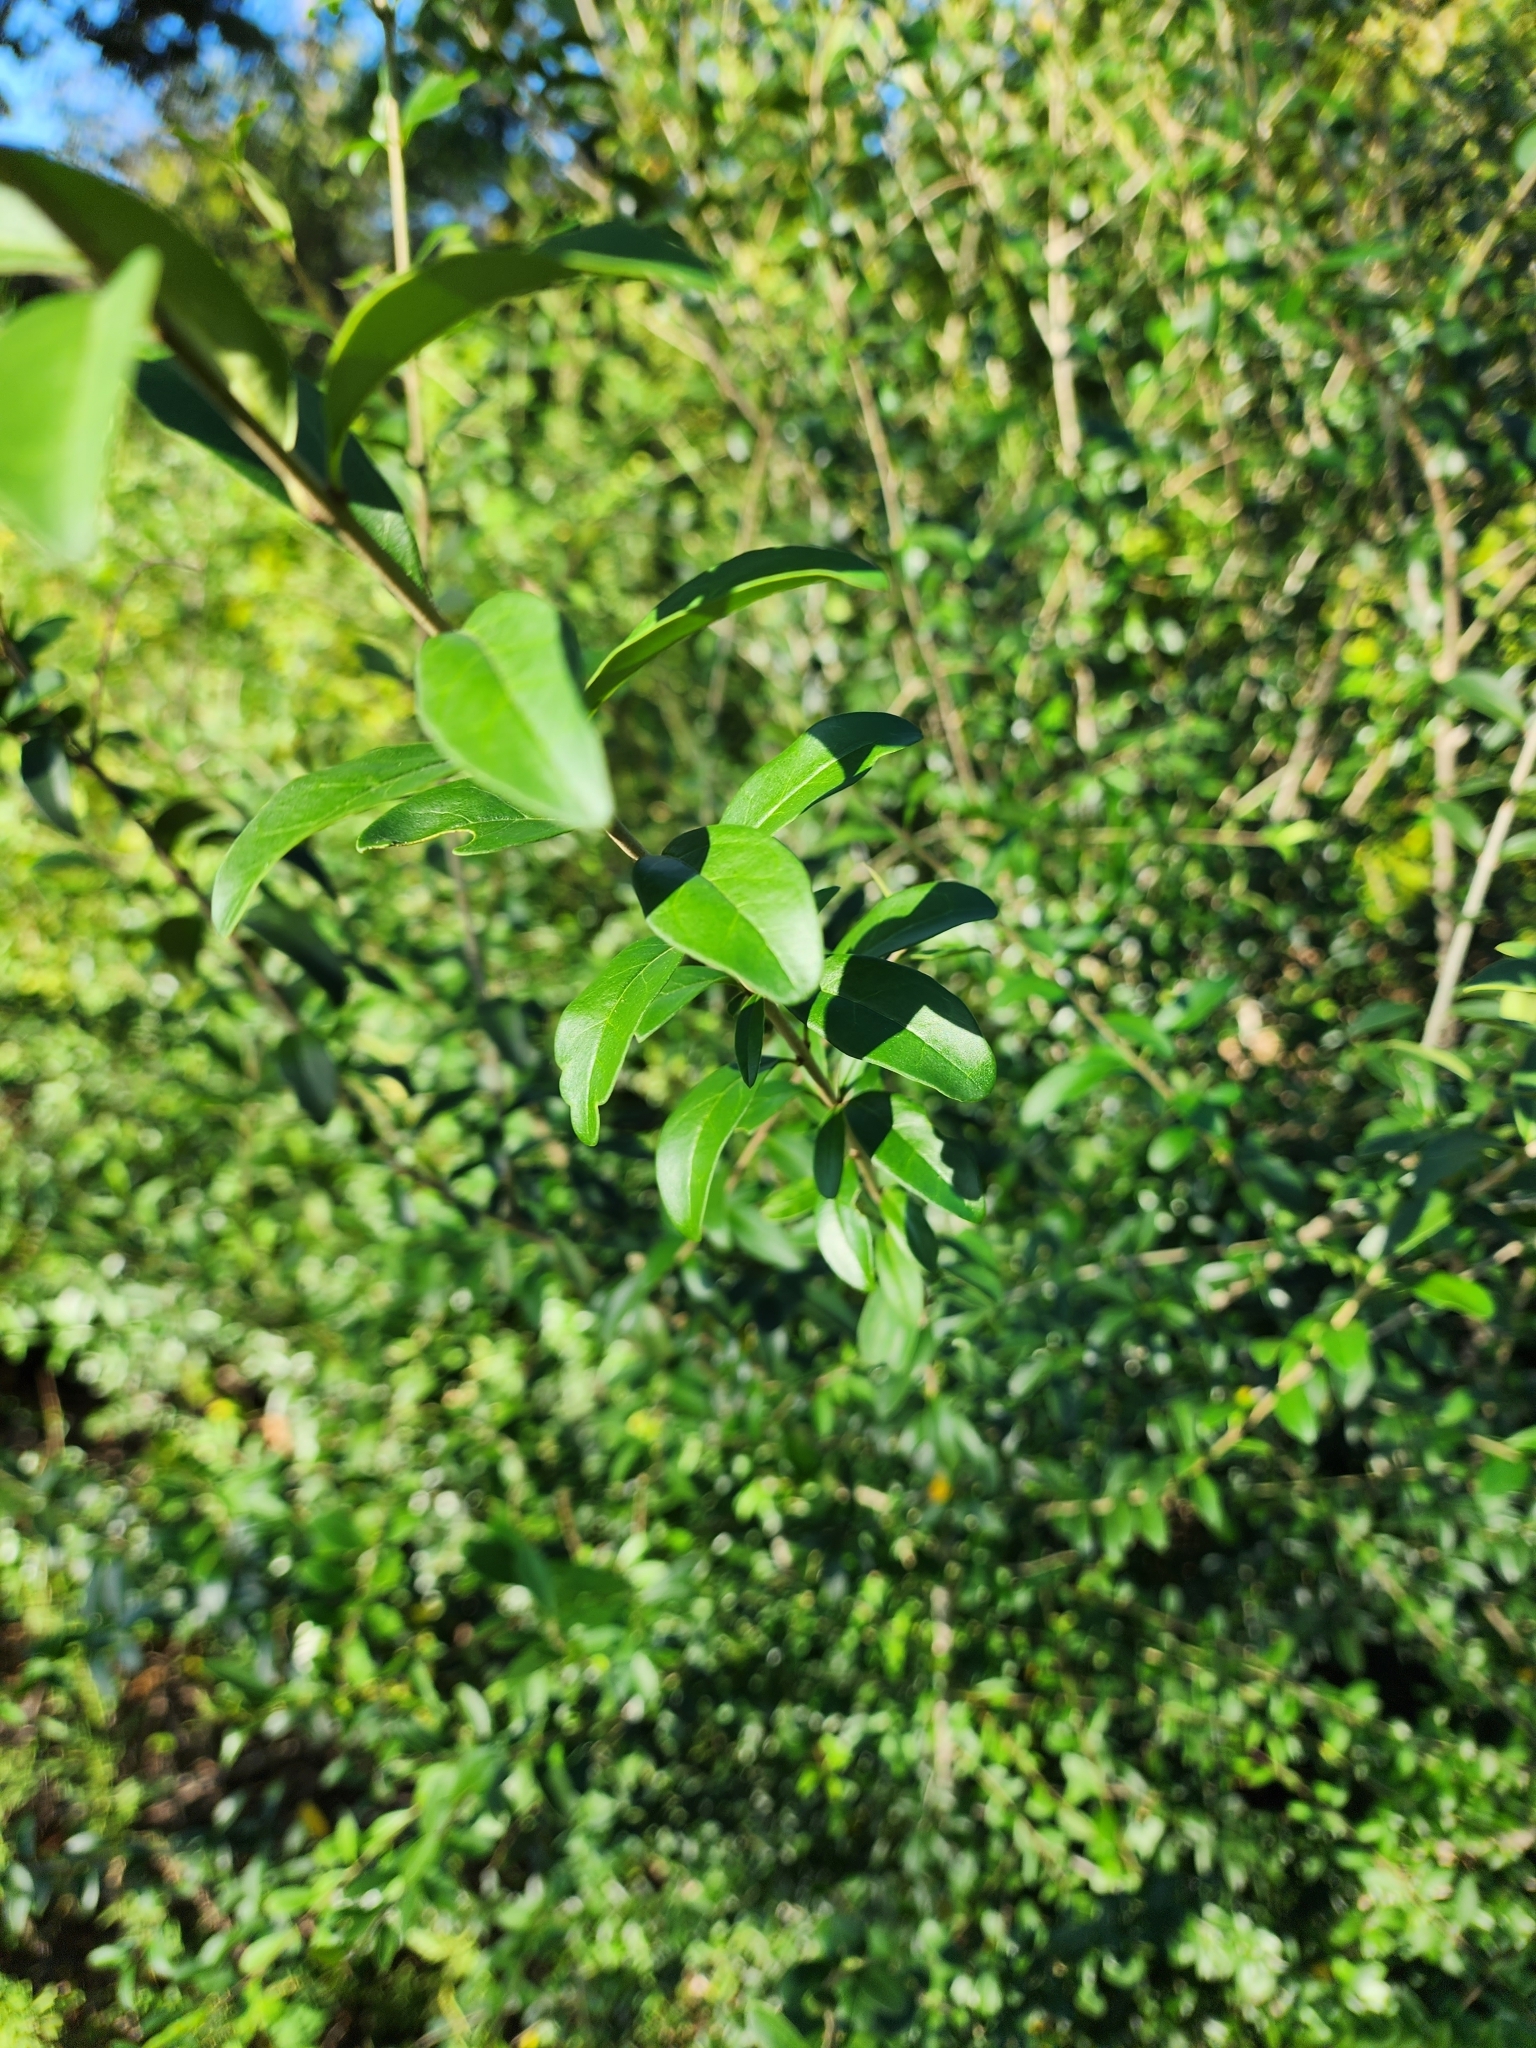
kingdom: Plantae
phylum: Tracheophyta
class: Magnoliopsida
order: Lamiales
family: Oleaceae
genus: Ligustrum
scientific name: Ligustrum quihoui
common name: Waxyleaf privet
